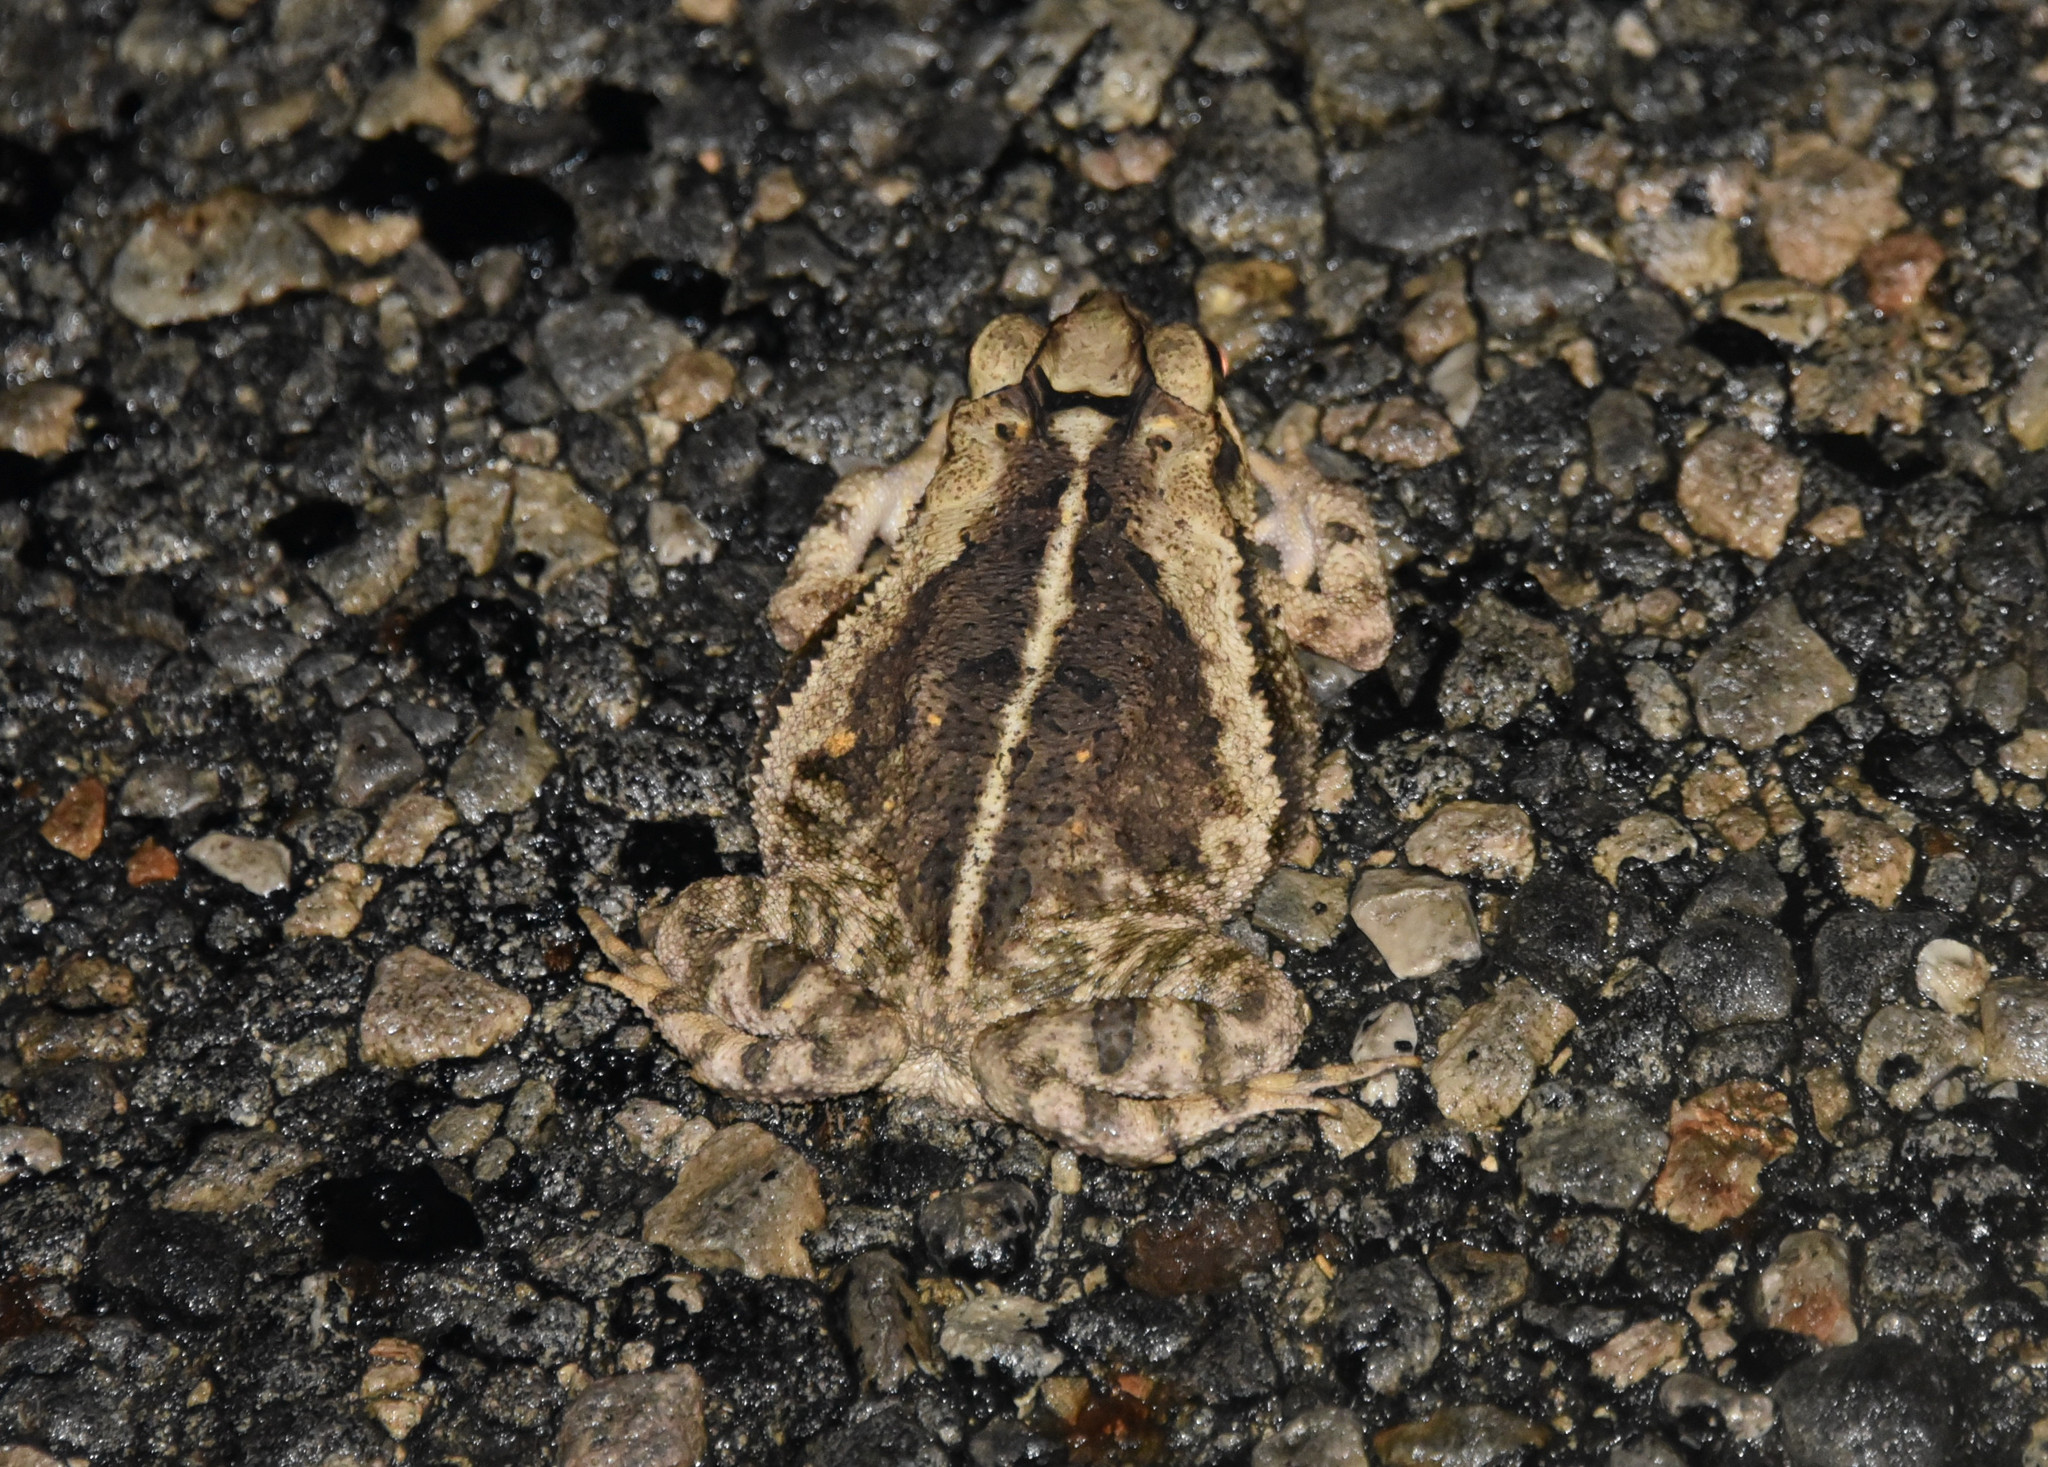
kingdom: Animalia
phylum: Chordata
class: Amphibia
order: Anura
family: Bufonidae
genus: Incilius
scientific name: Incilius nebulifer
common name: Gulf coast toad
